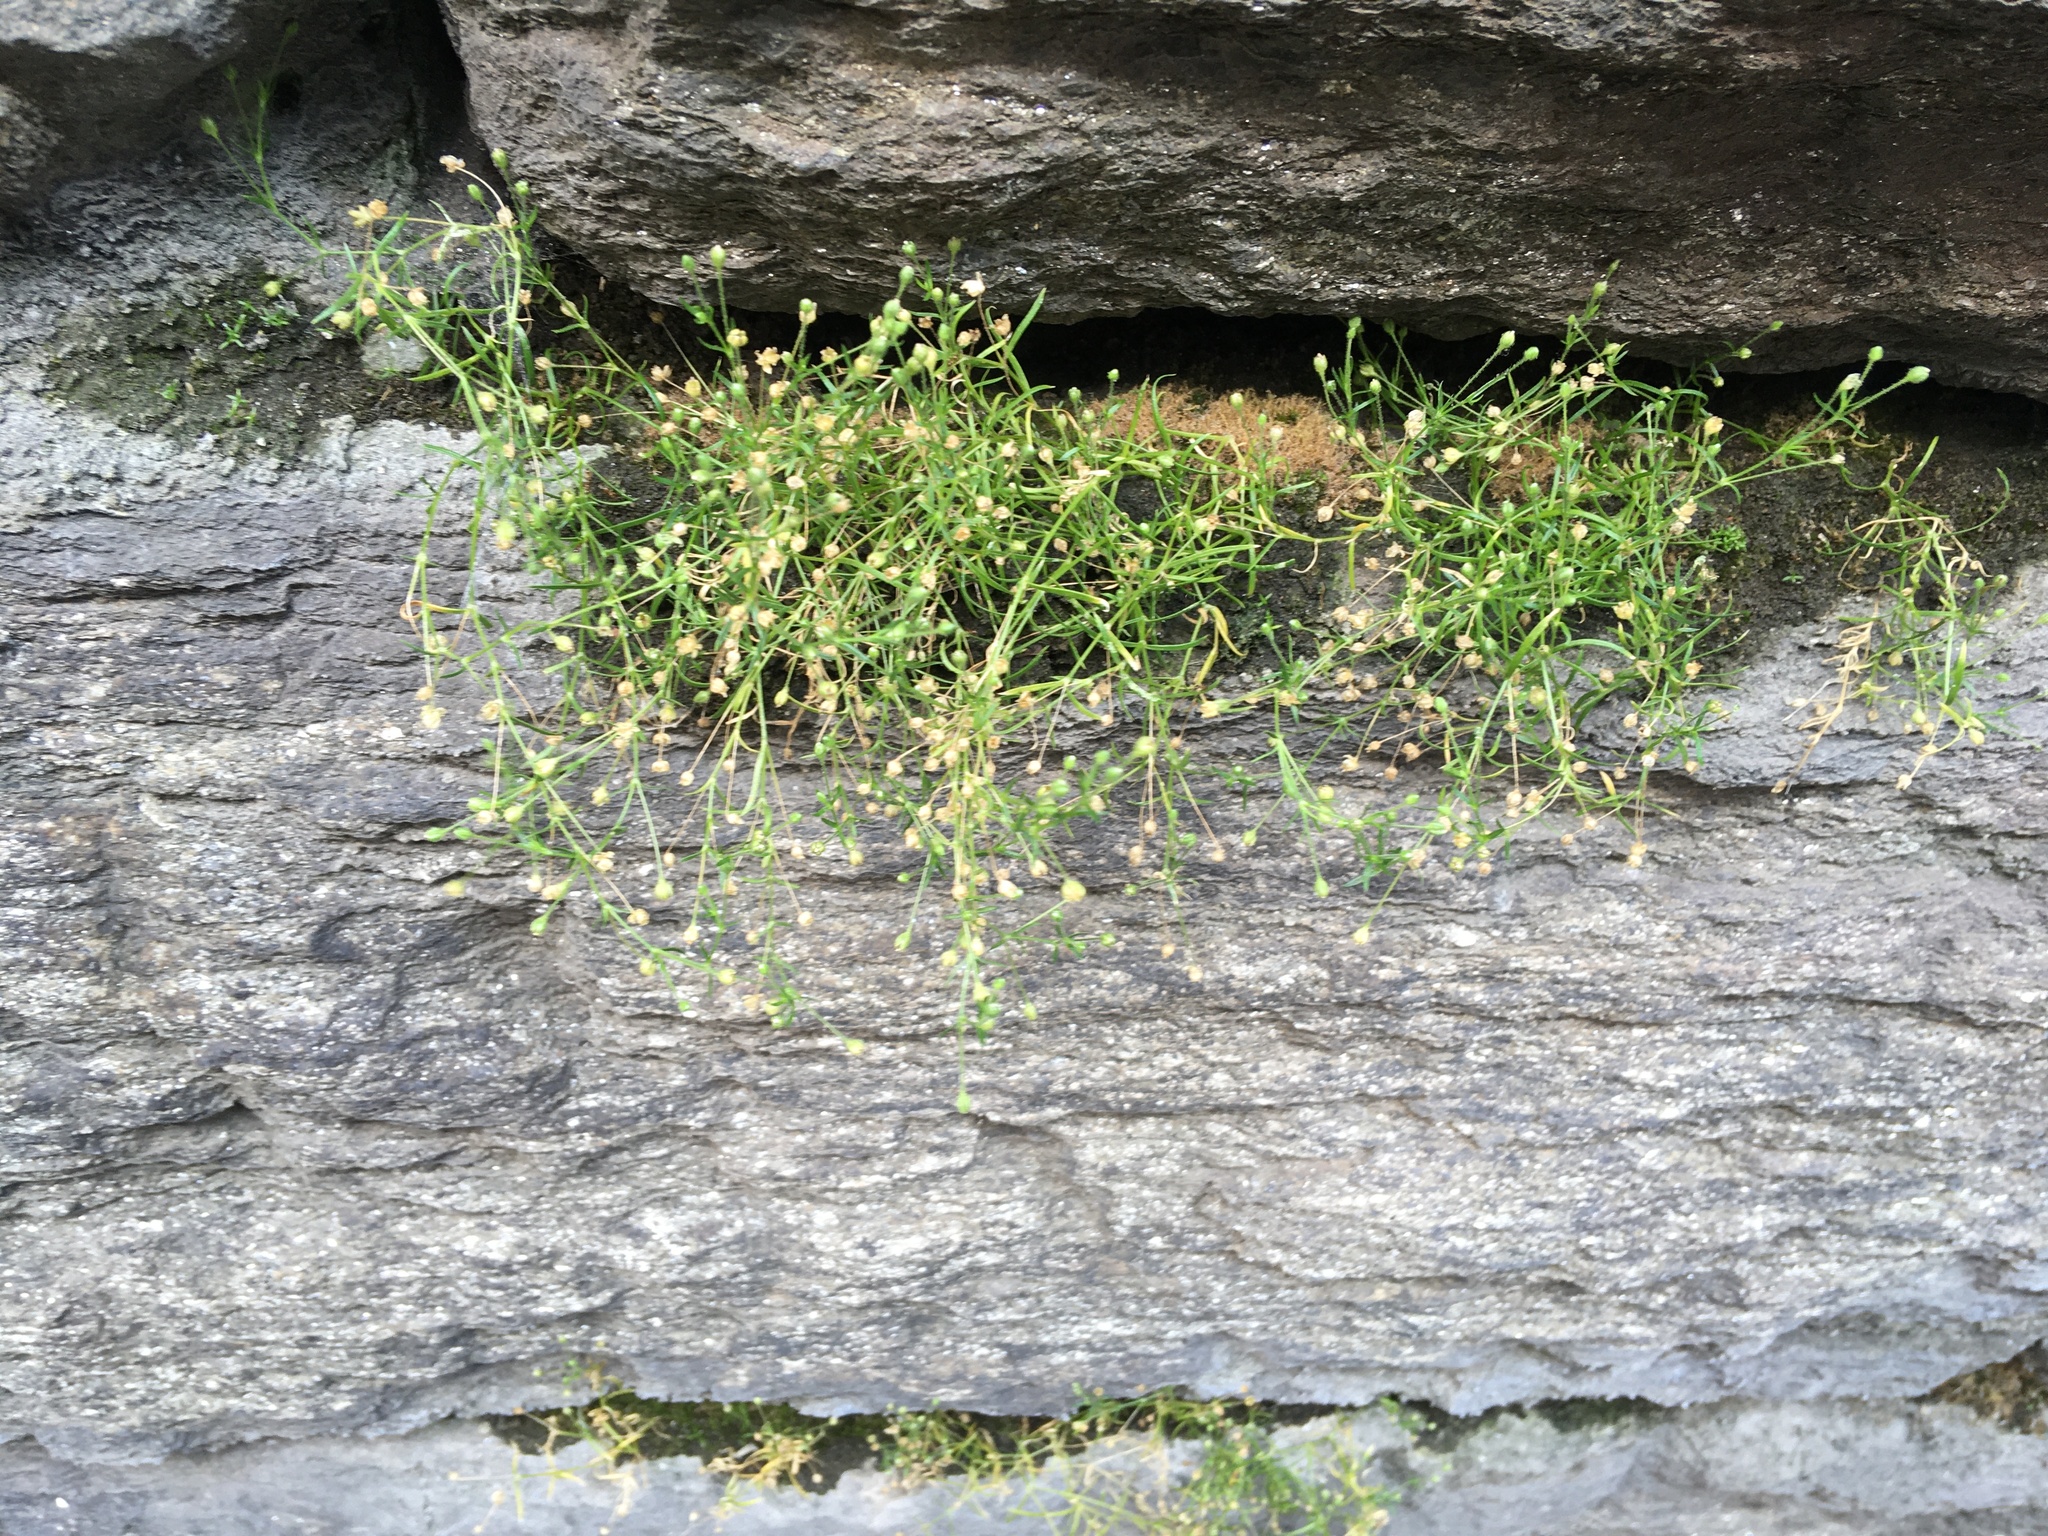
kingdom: Plantae
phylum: Tracheophyta
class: Magnoliopsida
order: Caryophyllales
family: Caryophyllaceae
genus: Sagina
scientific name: Sagina japonica
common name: Japanese pearlwort
